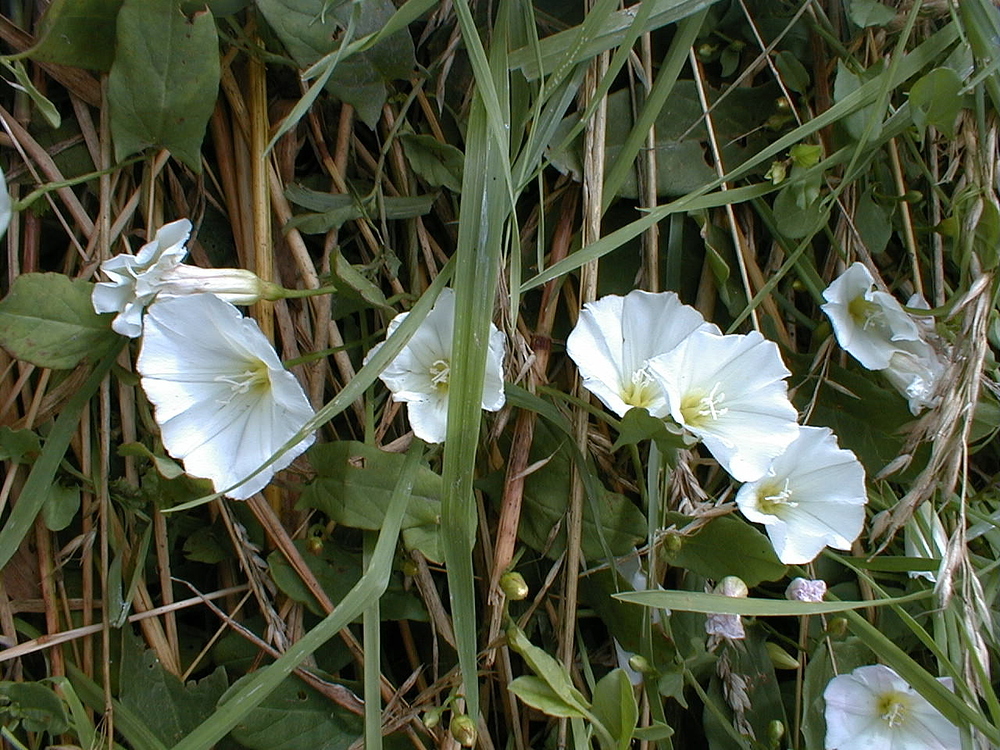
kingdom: Plantae
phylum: Tracheophyta
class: Magnoliopsida
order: Solanales
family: Convolvulaceae
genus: Convolvulus
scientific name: Convolvulus arvensis
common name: Field bindweed
